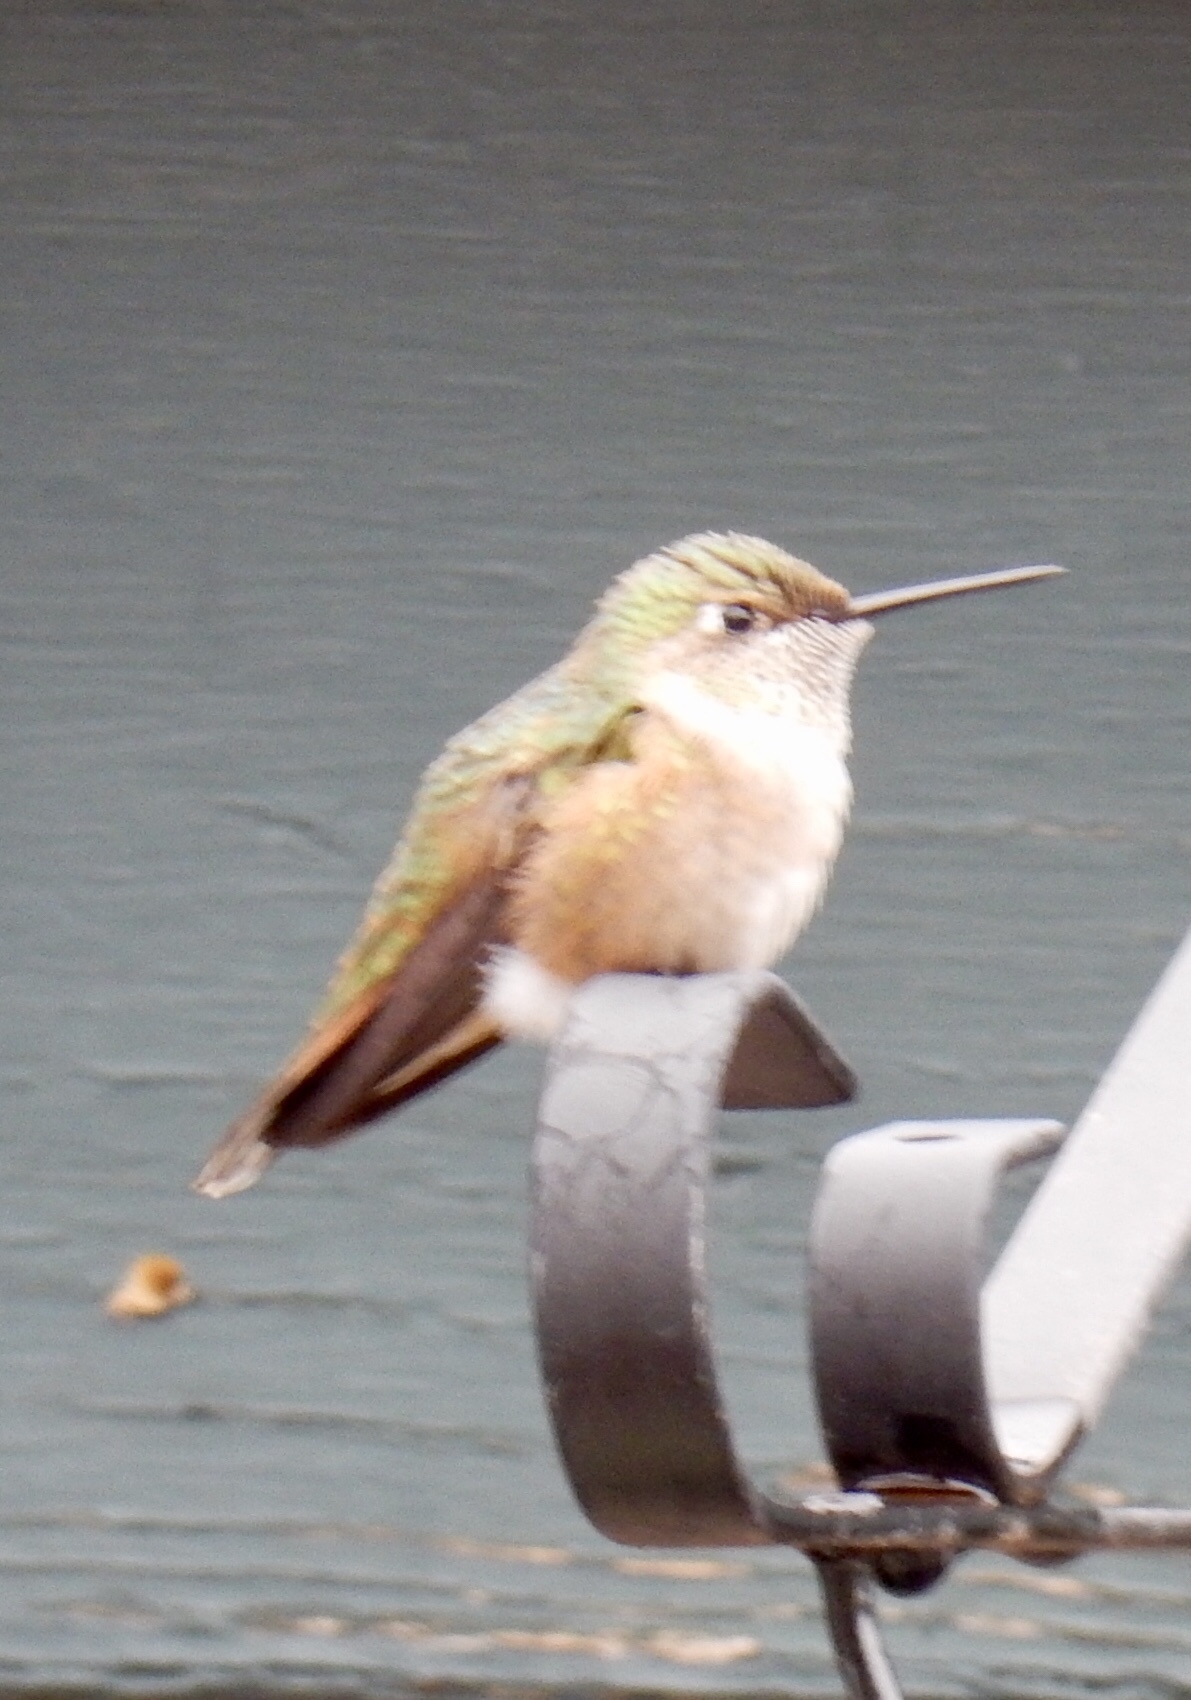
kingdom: Animalia
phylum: Chordata
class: Aves
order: Apodiformes
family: Trochilidae
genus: Selasphorus
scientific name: Selasphorus platycercus
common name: Broad-tailed hummingbird
